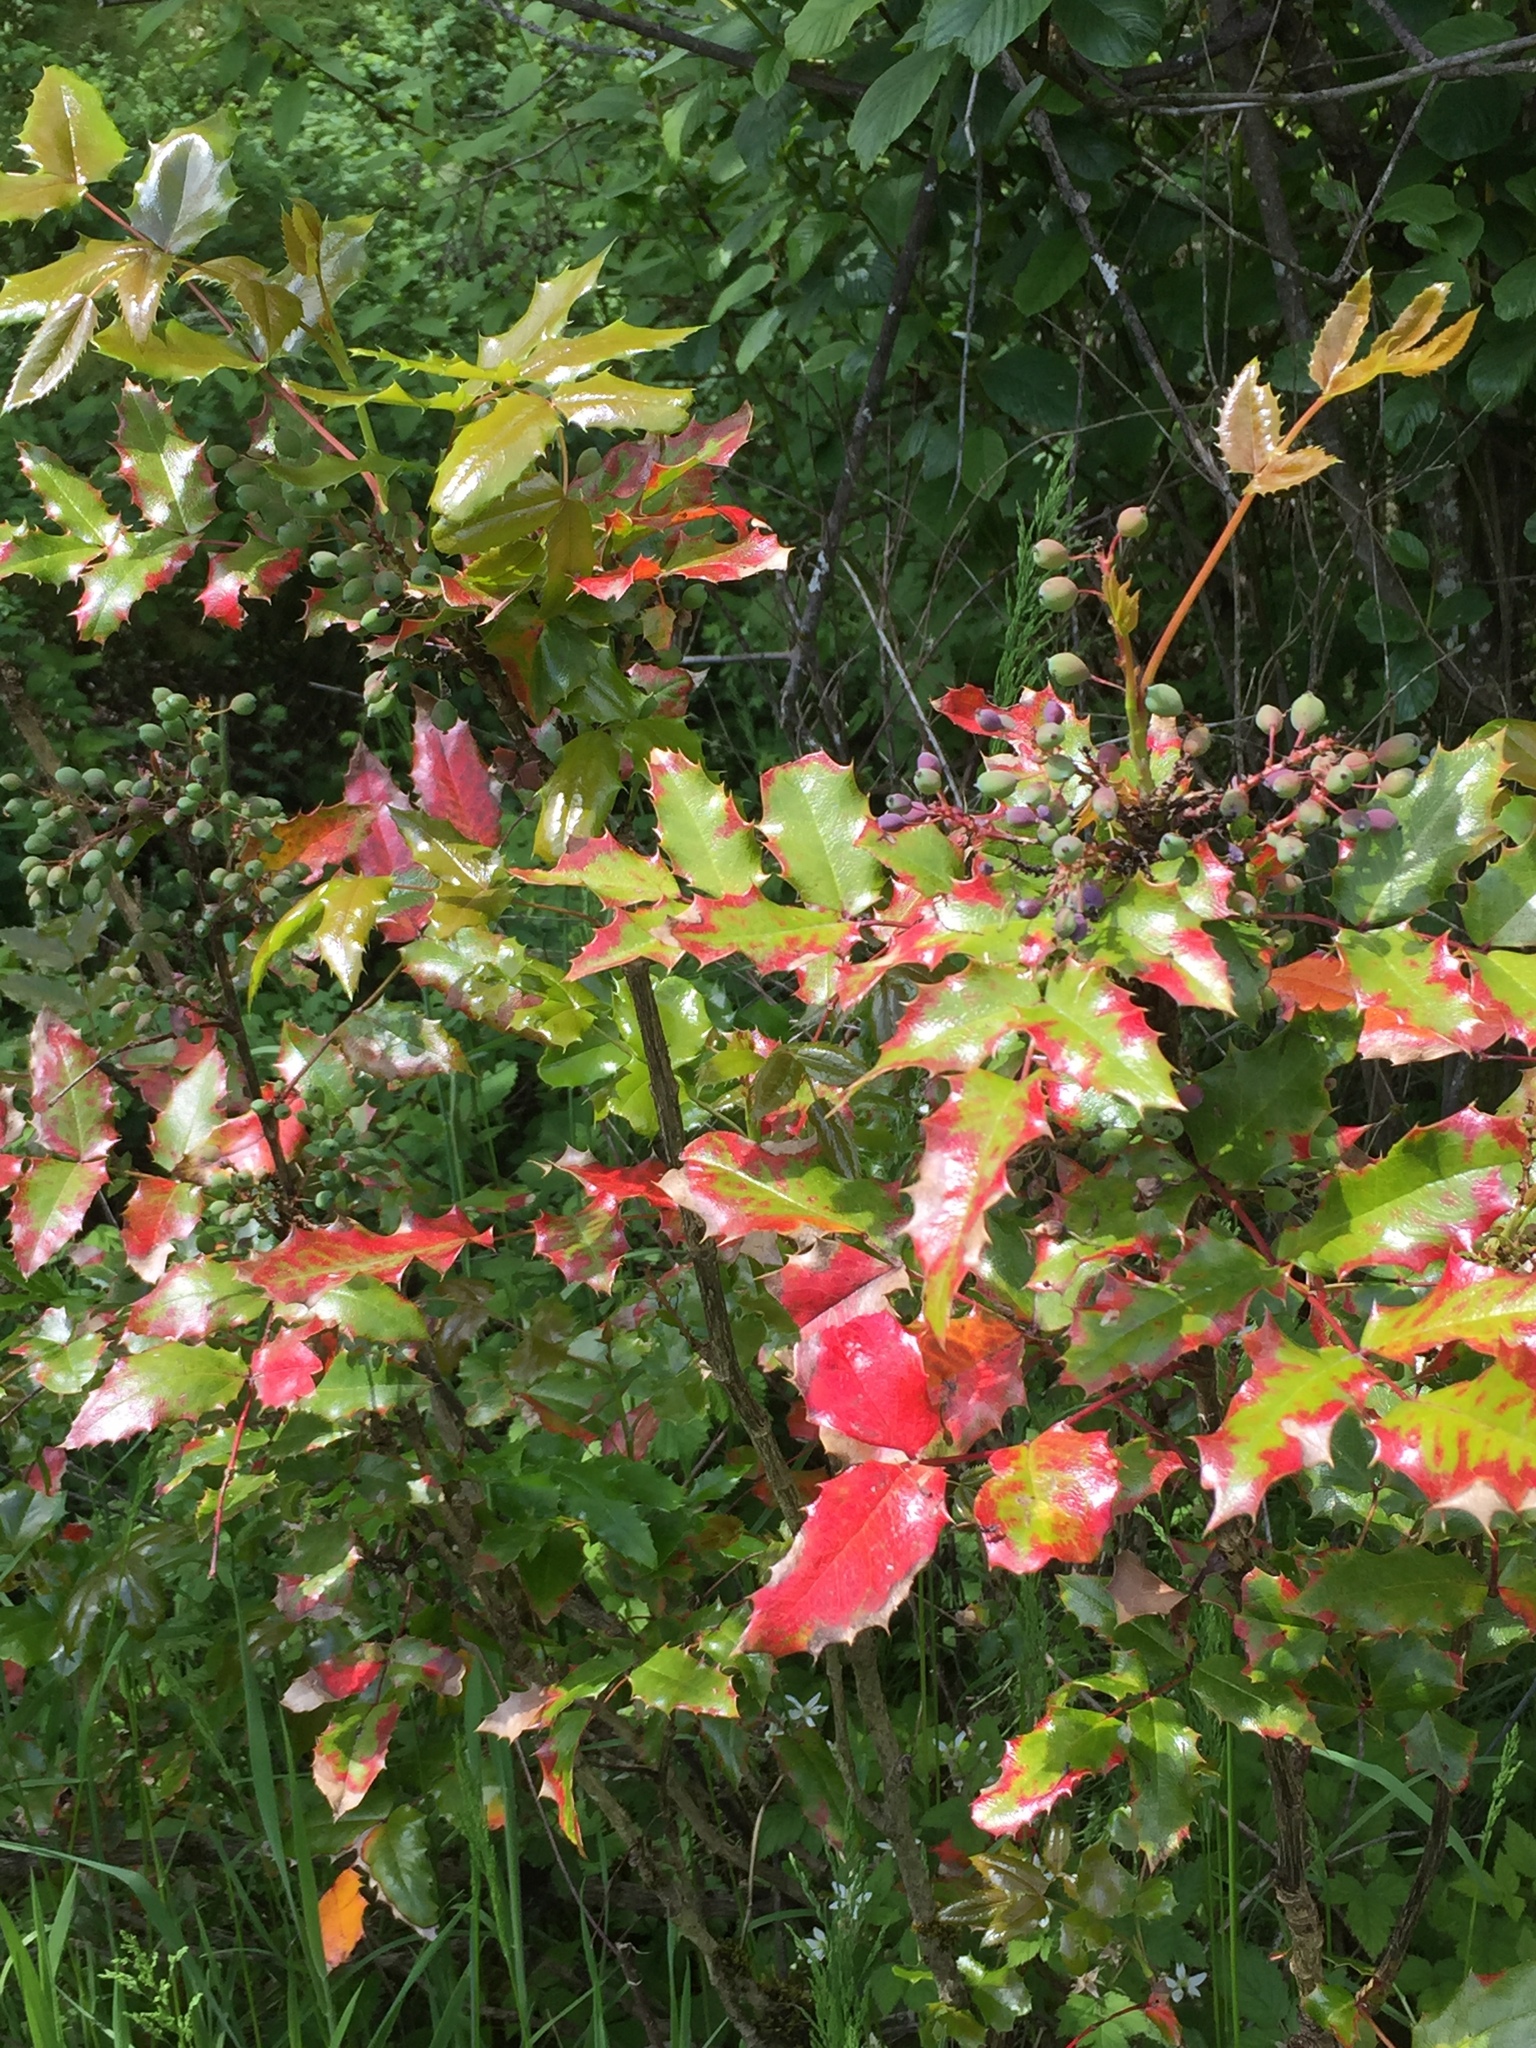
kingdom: Plantae
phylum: Tracheophyta
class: Magnoliopsida
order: Ranunculales
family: Berberidaceae
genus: Mahonia
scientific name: Mahonia aquifolium
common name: Oregon-grape
